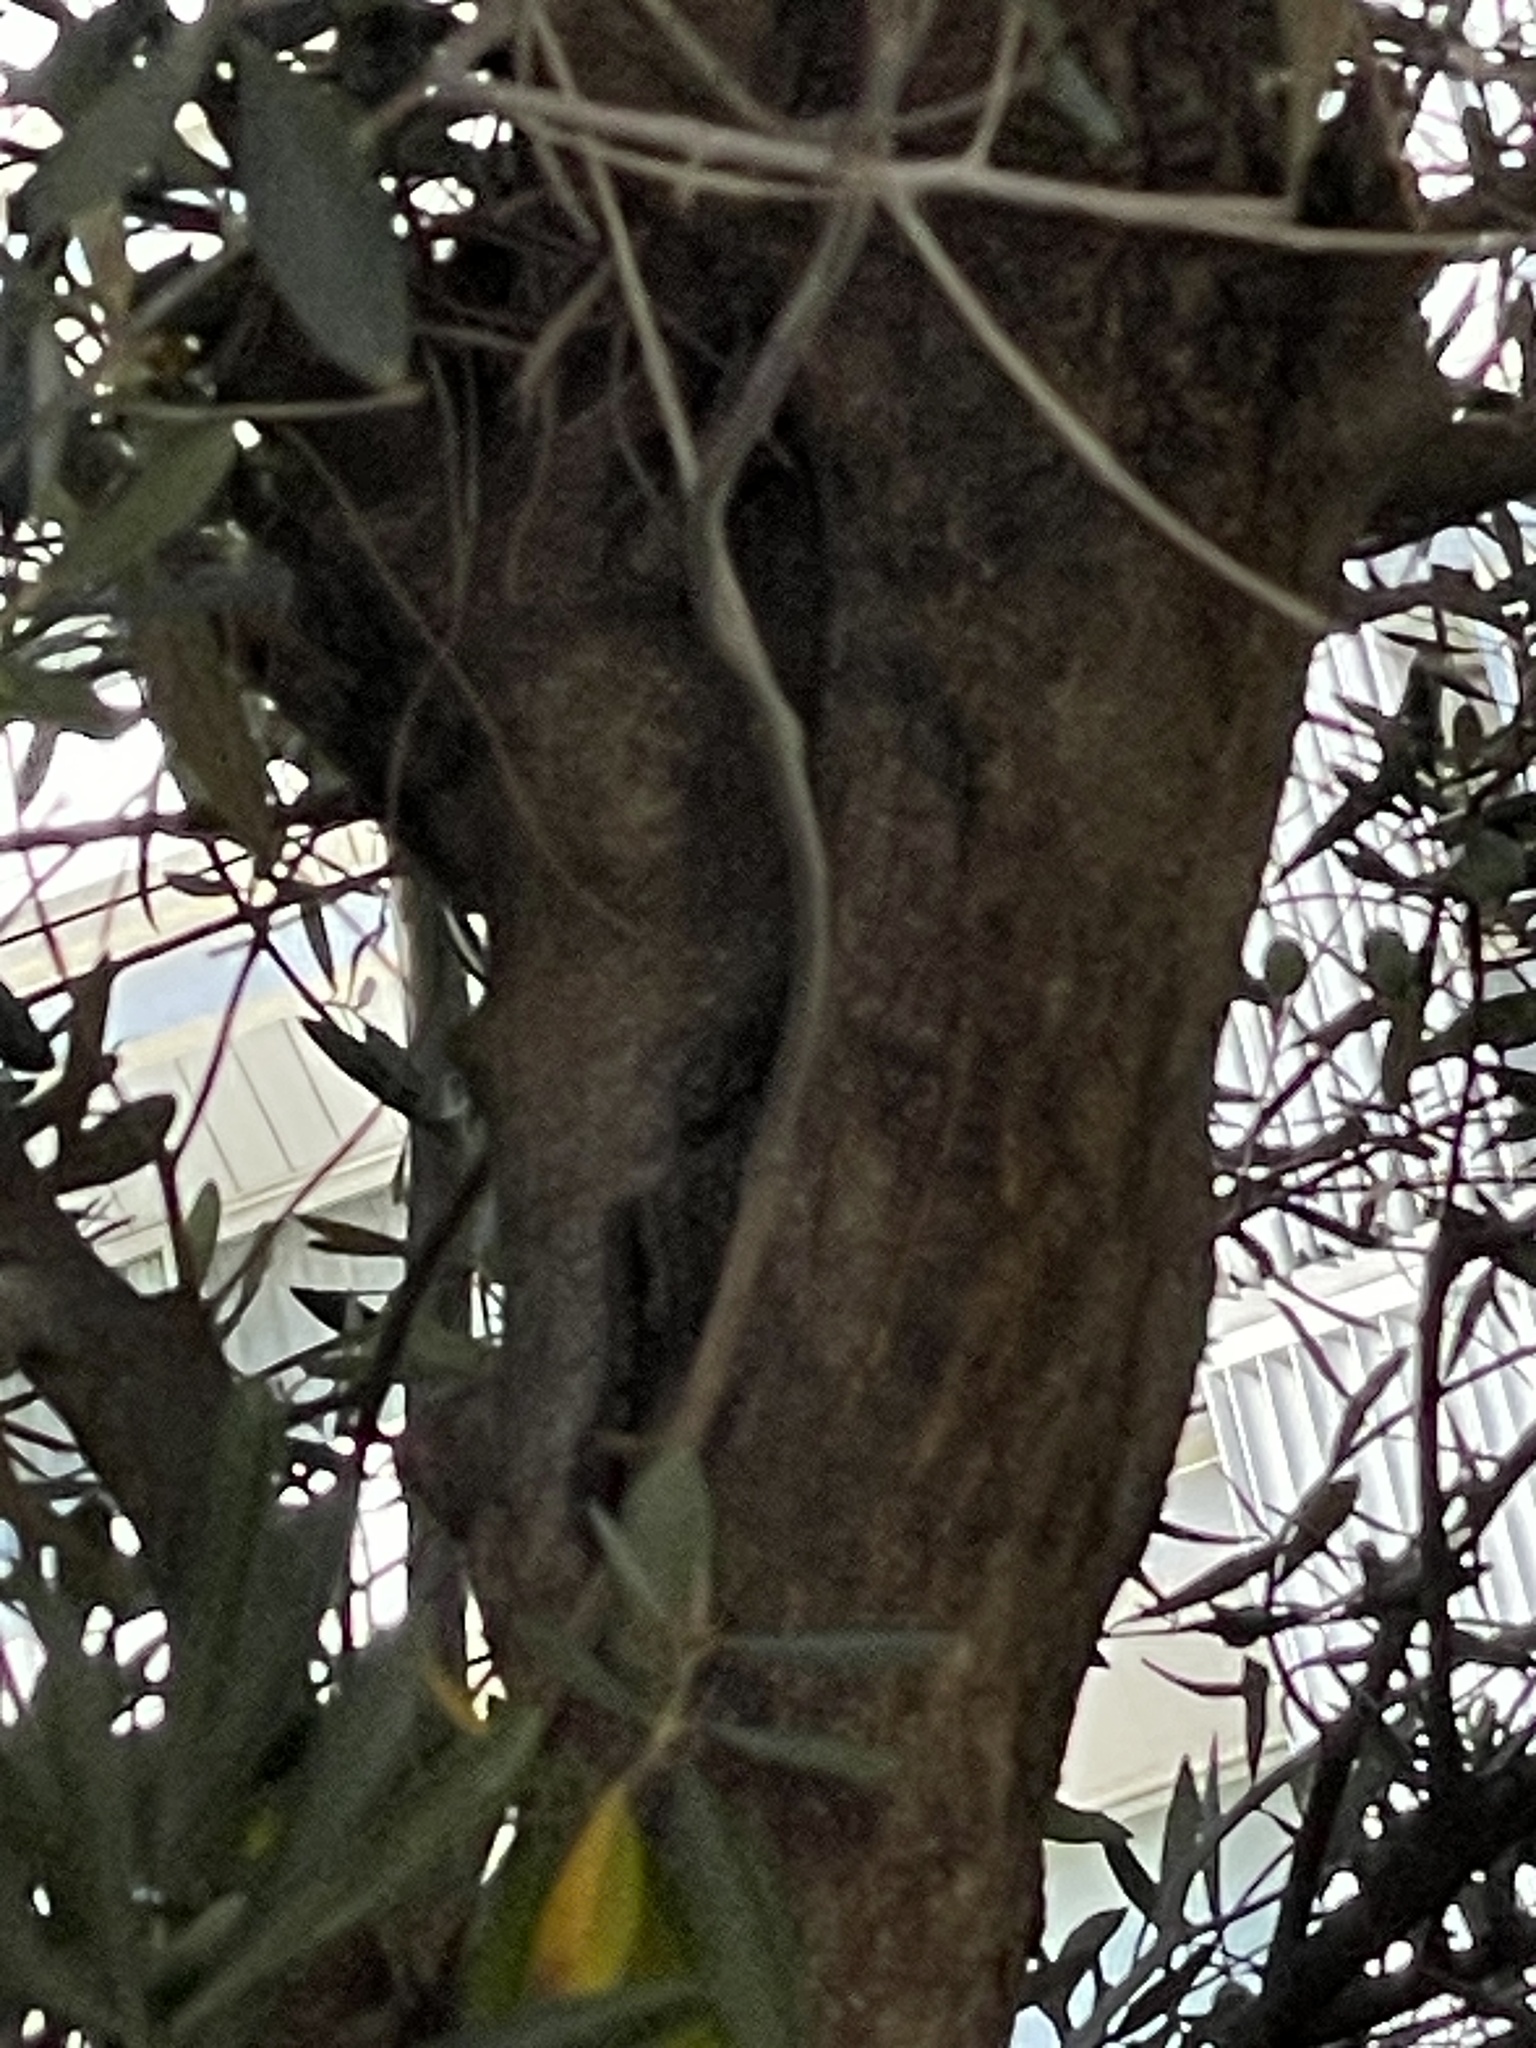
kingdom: Plantae
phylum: Tracheophyta
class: Magnoliopsida
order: Lamiales
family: Oleaceae
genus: Olea
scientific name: Olea europaea
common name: Olive
